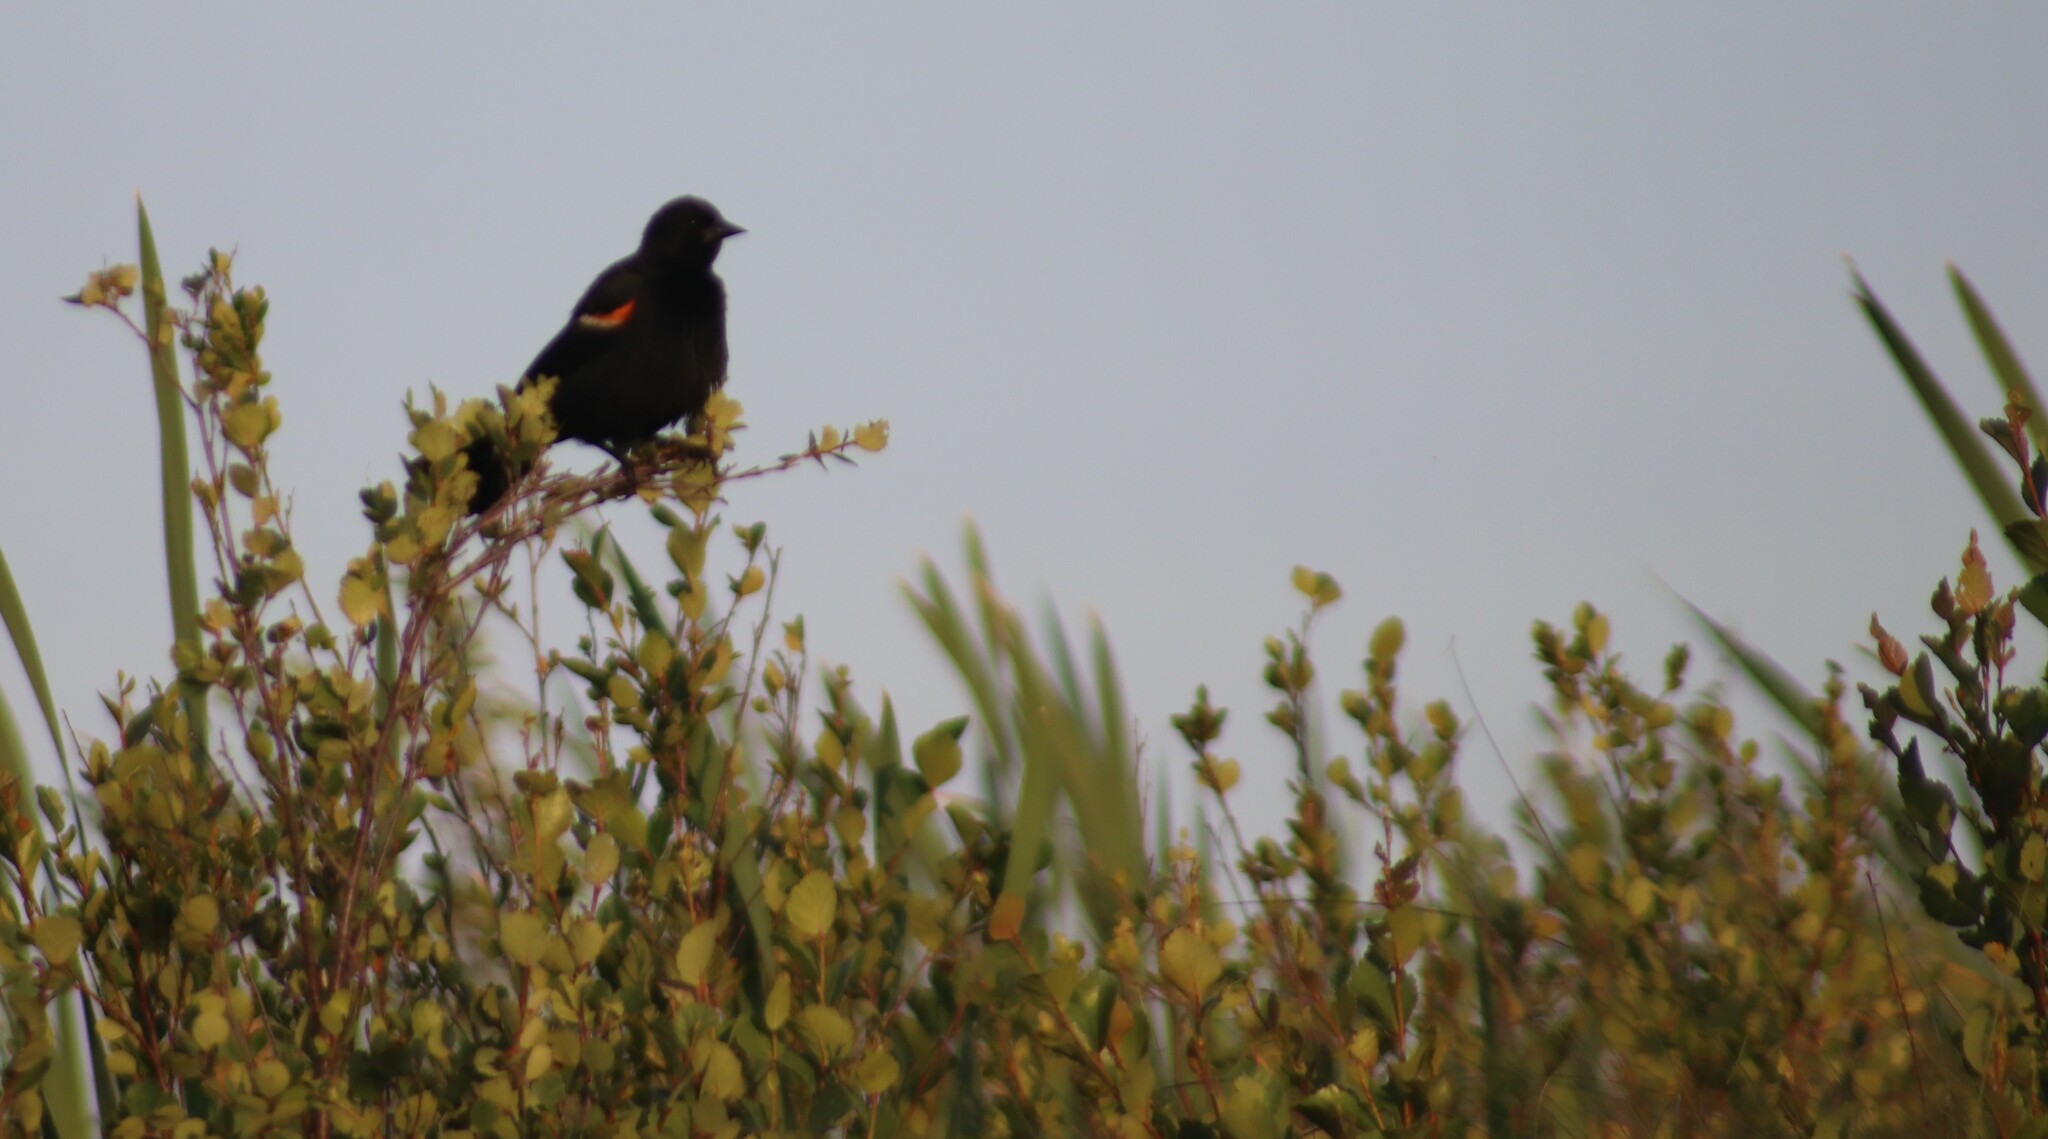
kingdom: Animalia
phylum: Chordata
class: Aves
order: Passeriformes
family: Icteridae
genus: Agelaius
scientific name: Agelaius phoeniceus
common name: Red-winged blackbird
